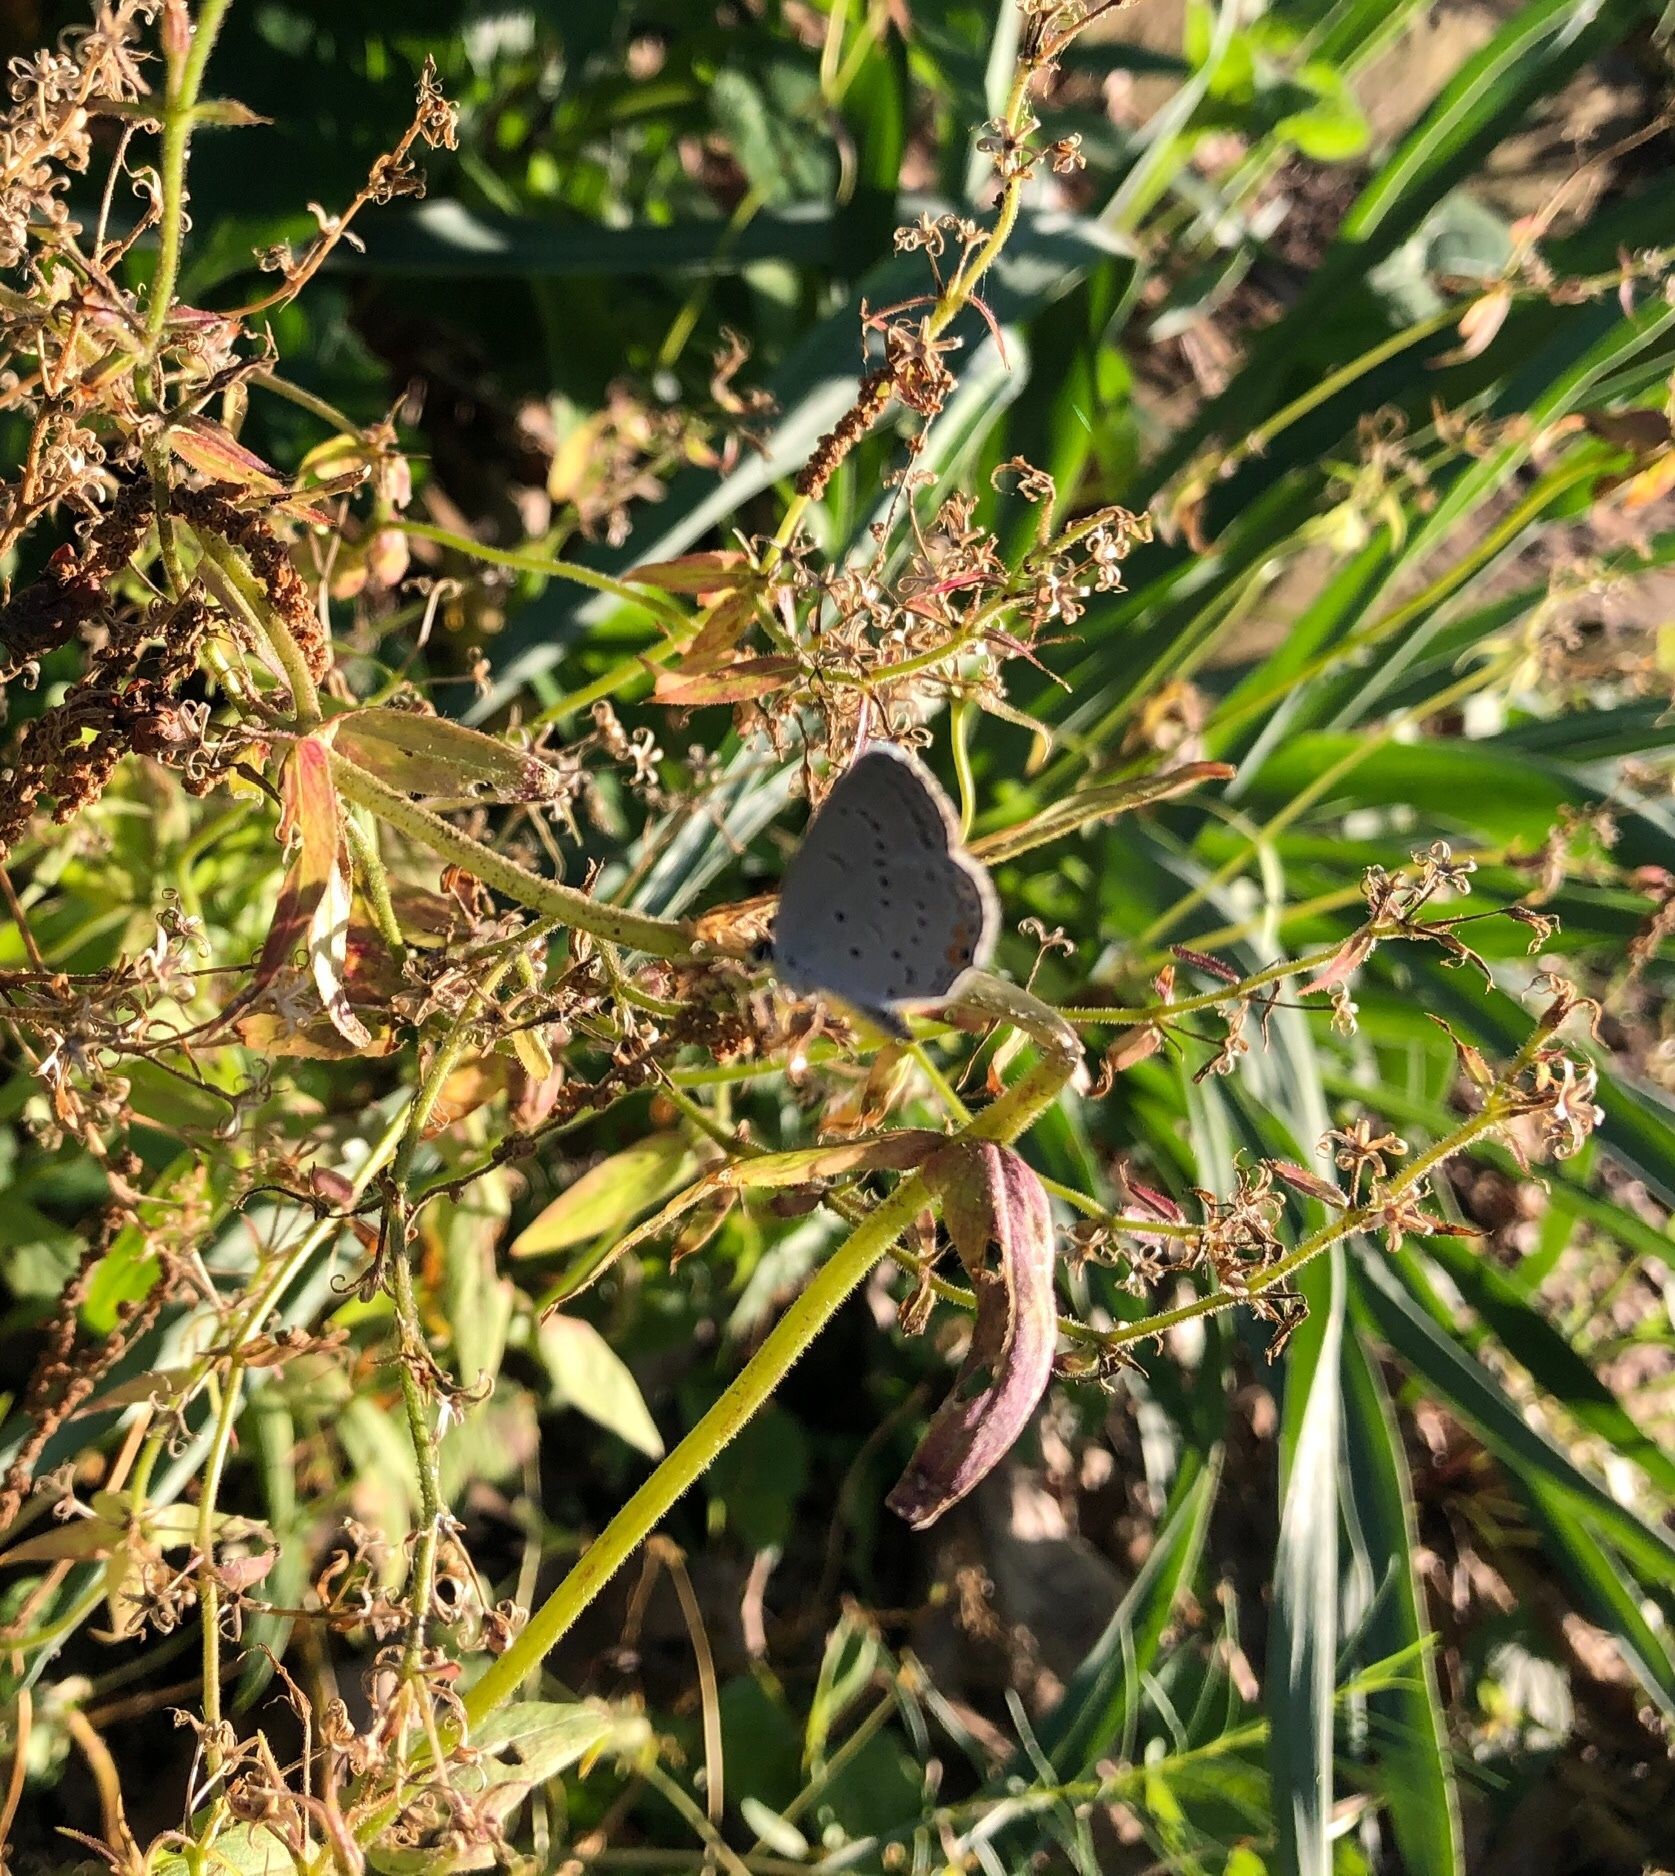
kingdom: Animalia
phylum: Arthropoda
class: Insecta
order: Lepidoptera
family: Lycaenidae
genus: Elkalyce
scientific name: Elkalyce comyntas
